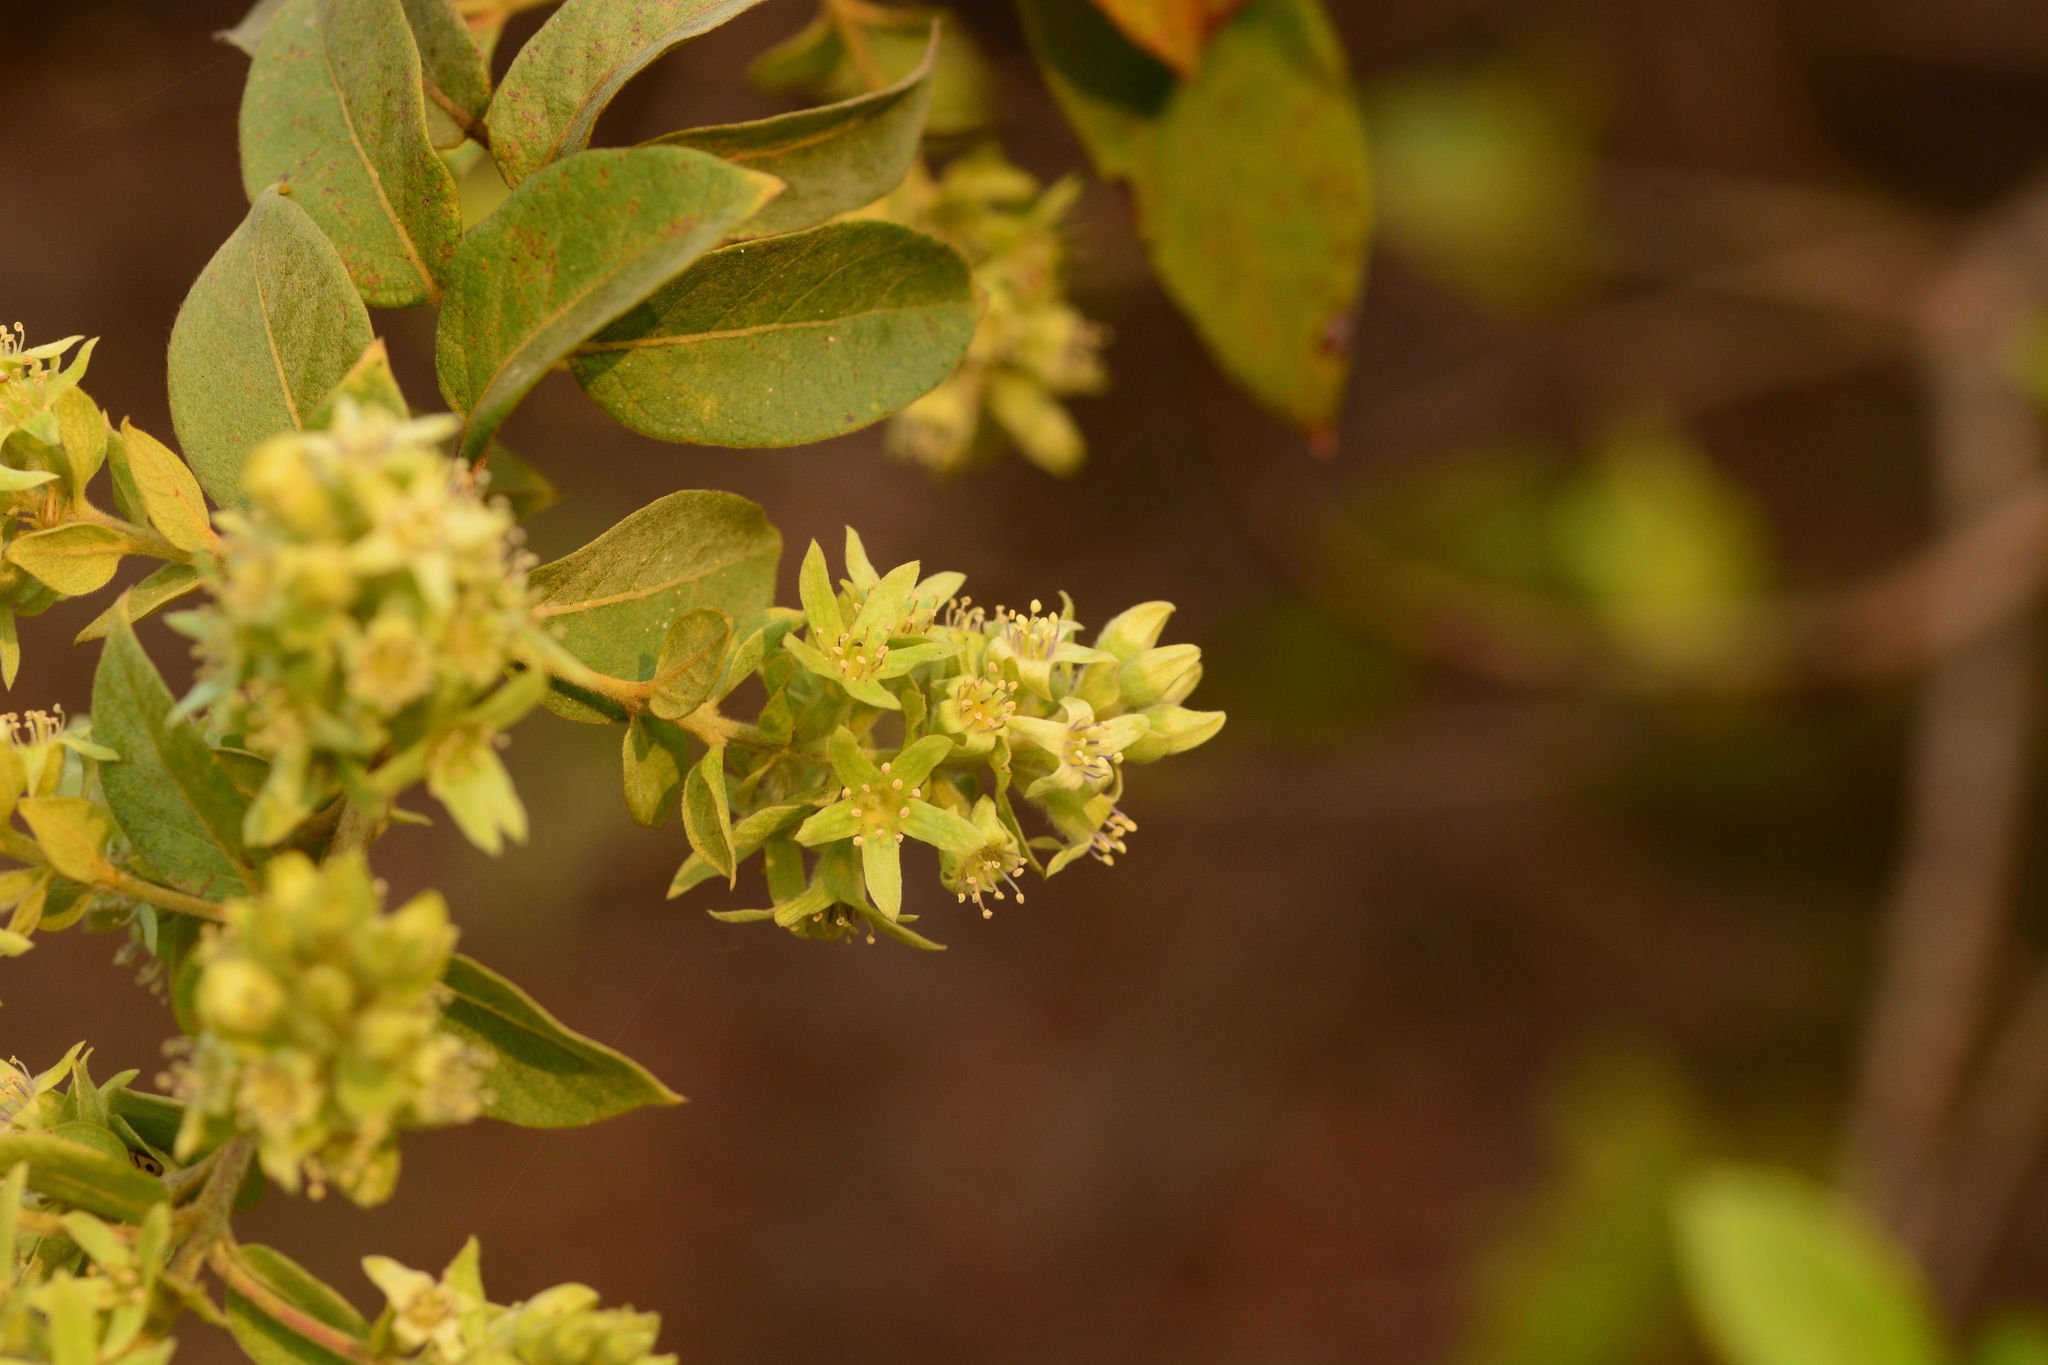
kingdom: Plantae
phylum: Tracheophyta
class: Magnoliopsida
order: Myrtales
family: Combretaceae
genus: Getonia
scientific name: Getonia floribunda
